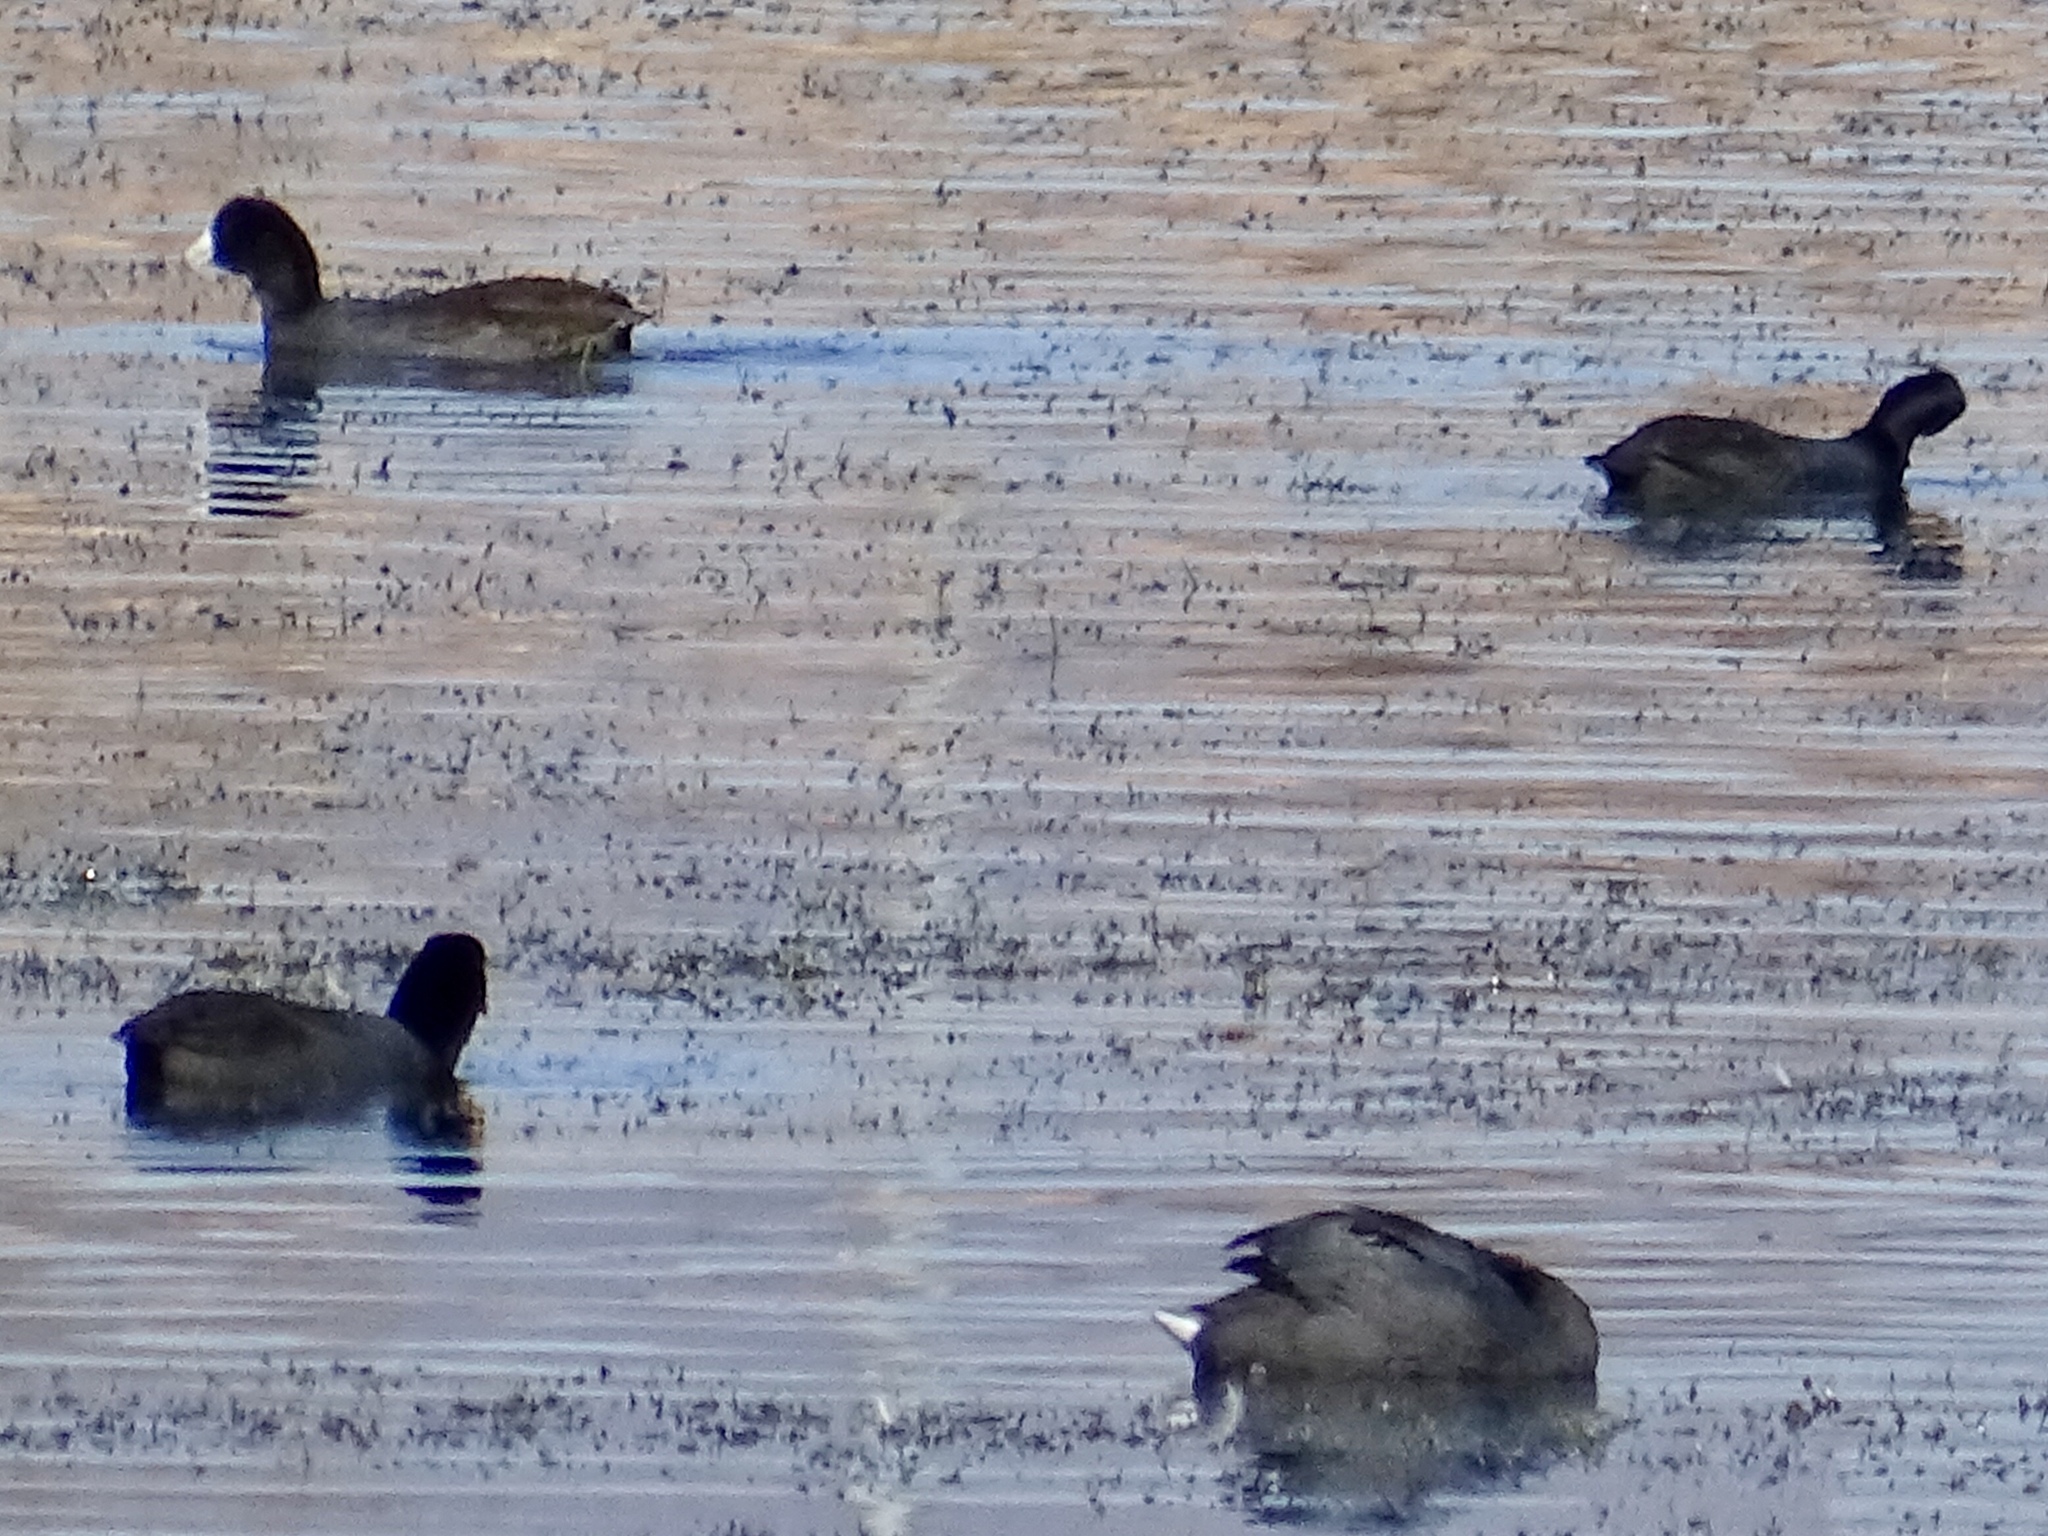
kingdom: Animalia
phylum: Chordata
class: Aves
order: Gruiformes
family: Rallidae
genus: Fulica
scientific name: Fulica americana
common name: American coot
